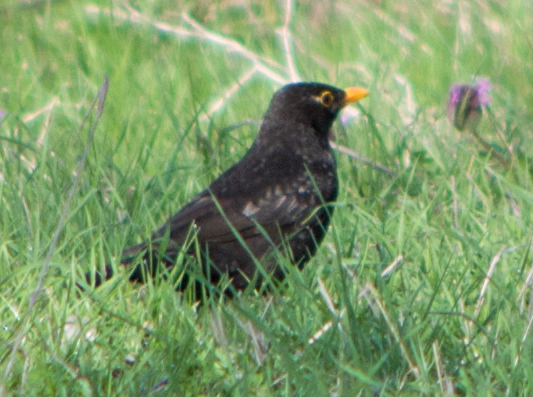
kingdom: Animalia
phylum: Chordata
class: Aves
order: Passeriformes
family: Turdidae
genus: Turdus
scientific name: Turdus merula
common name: Common blackbird
